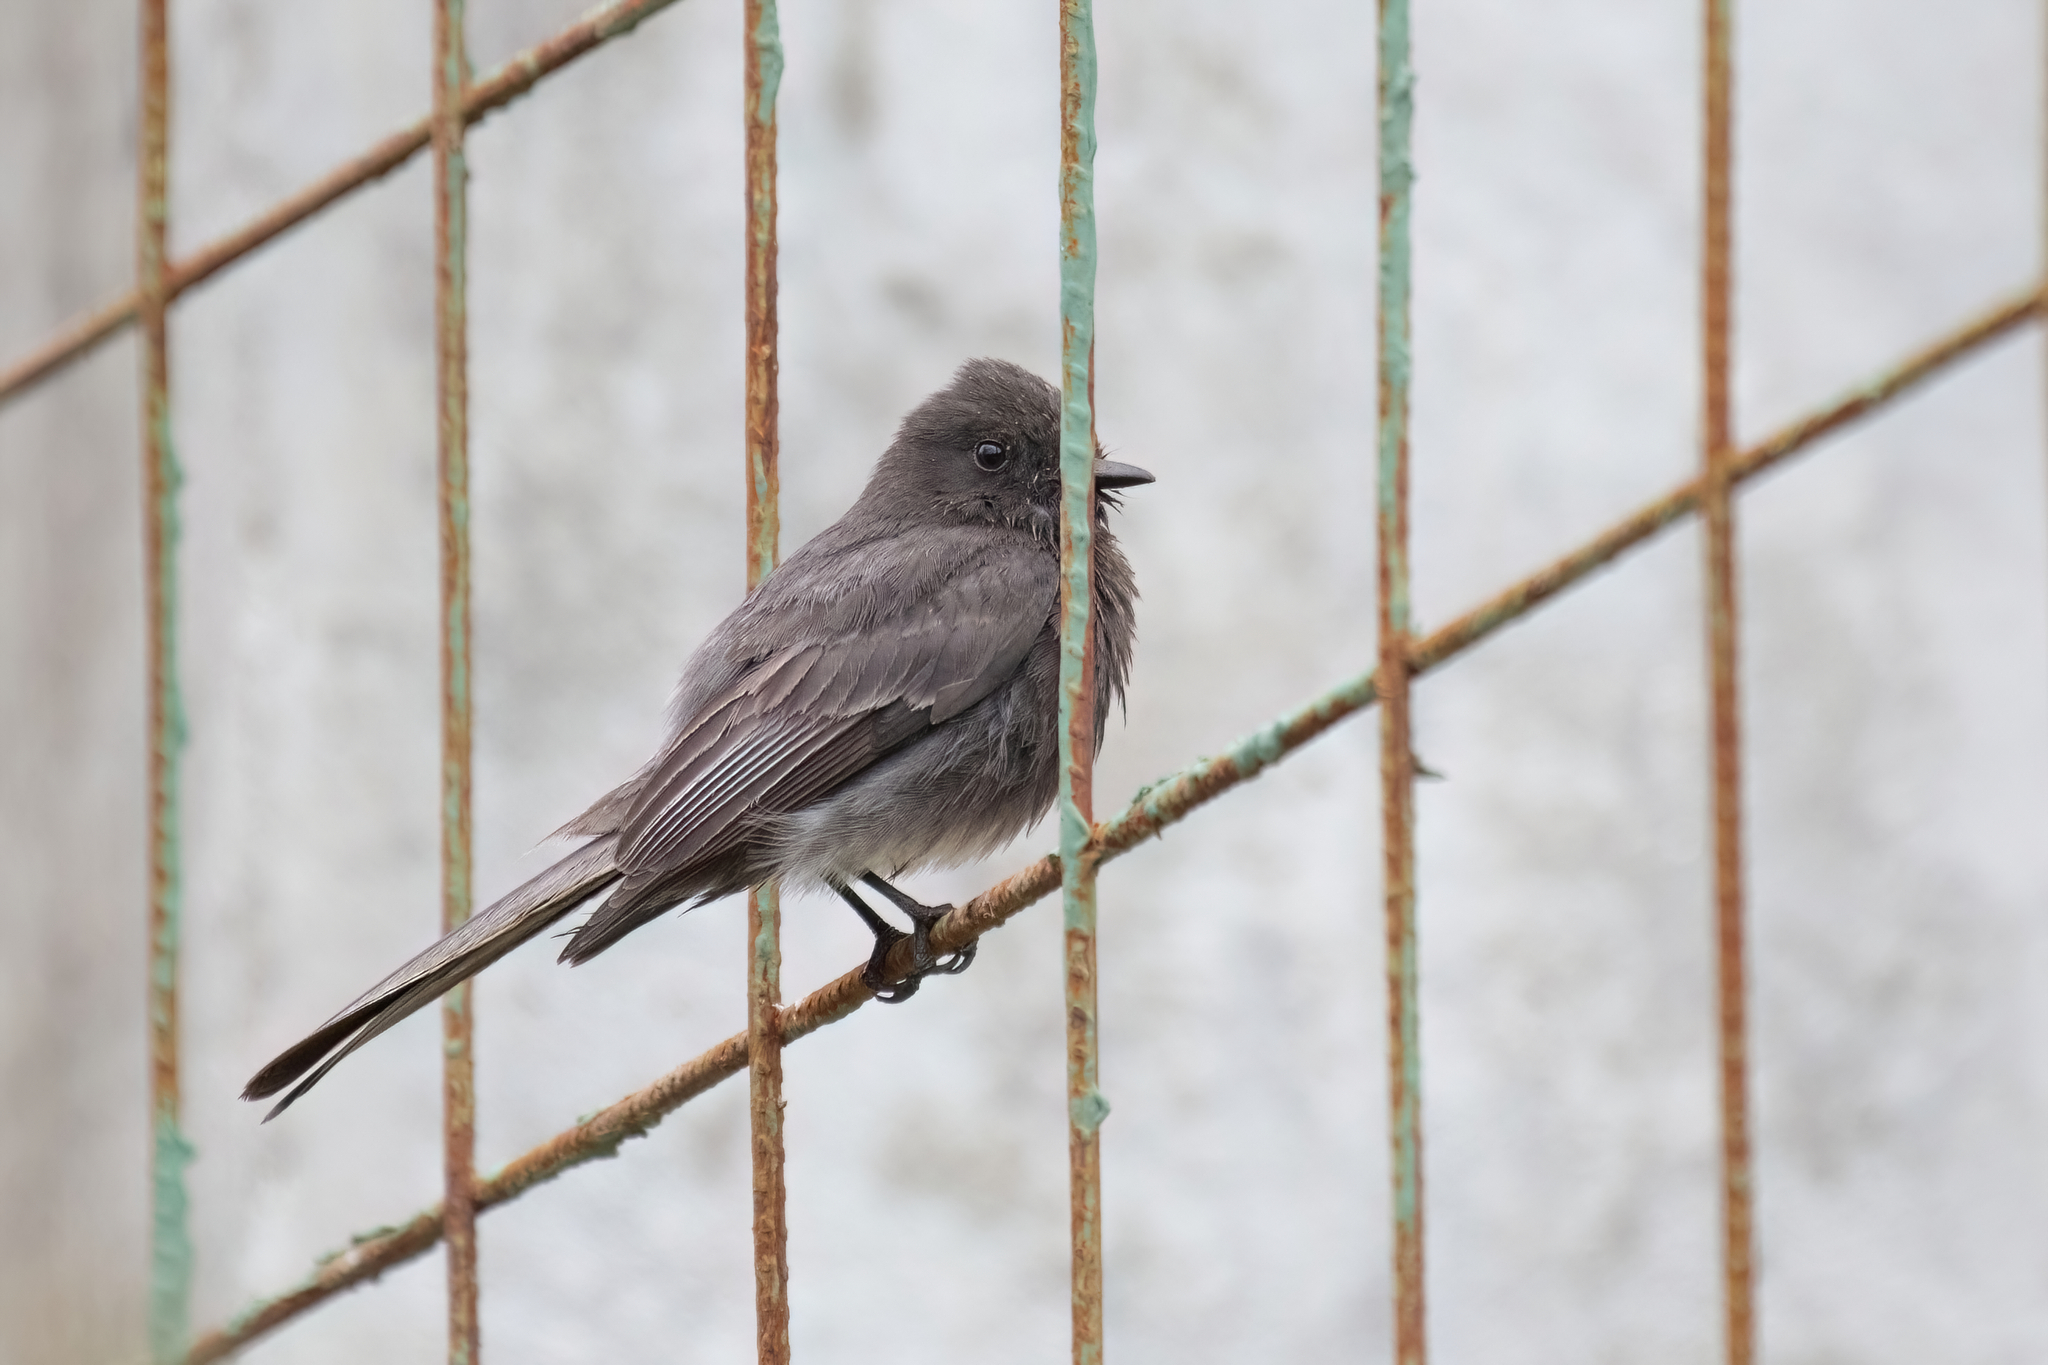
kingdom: Animalia
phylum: Chordata
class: Aves
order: Passeriformes
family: Tyrannidae
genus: Sayornis
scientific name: Sayornis nigricans
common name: Black phoebe
